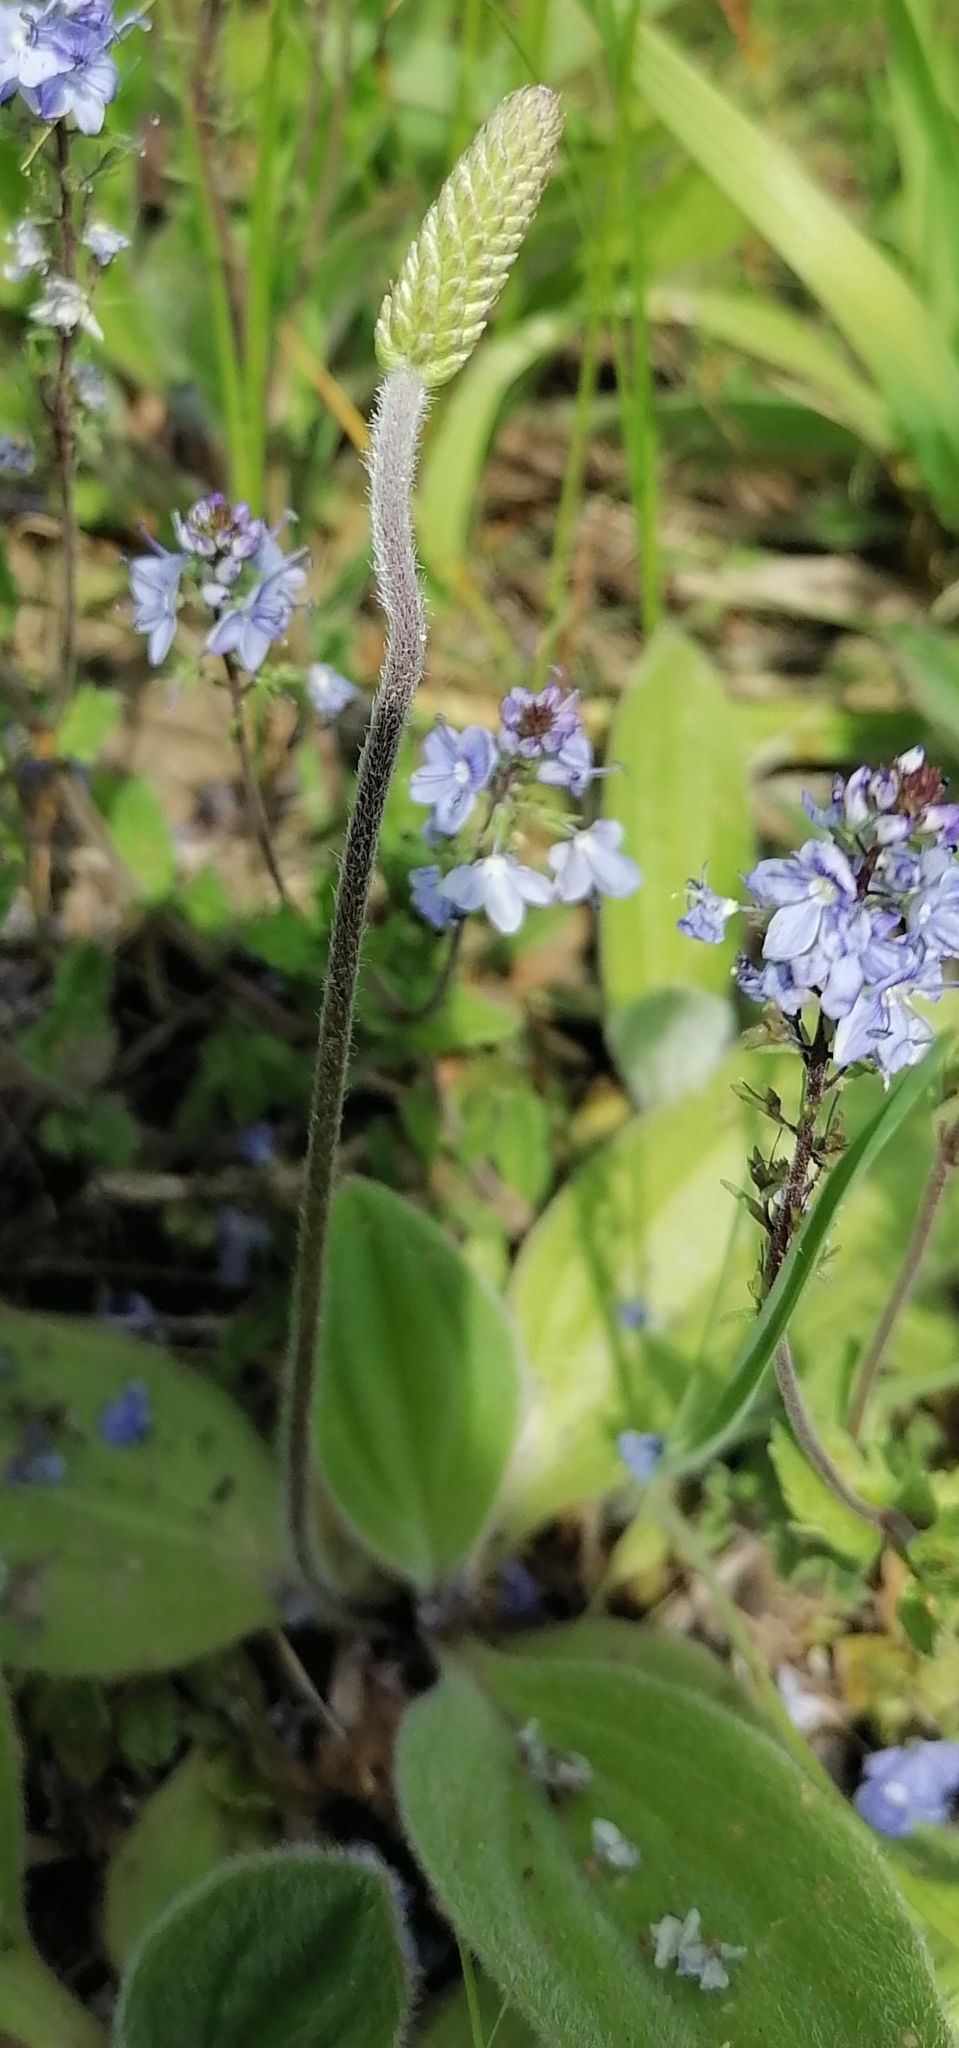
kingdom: Plantae
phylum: Tracheophyta
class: Magnoliopsida
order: Lamiales
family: Plantaginaceae
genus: Plantago
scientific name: Plantago media
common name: Hoary plantain
